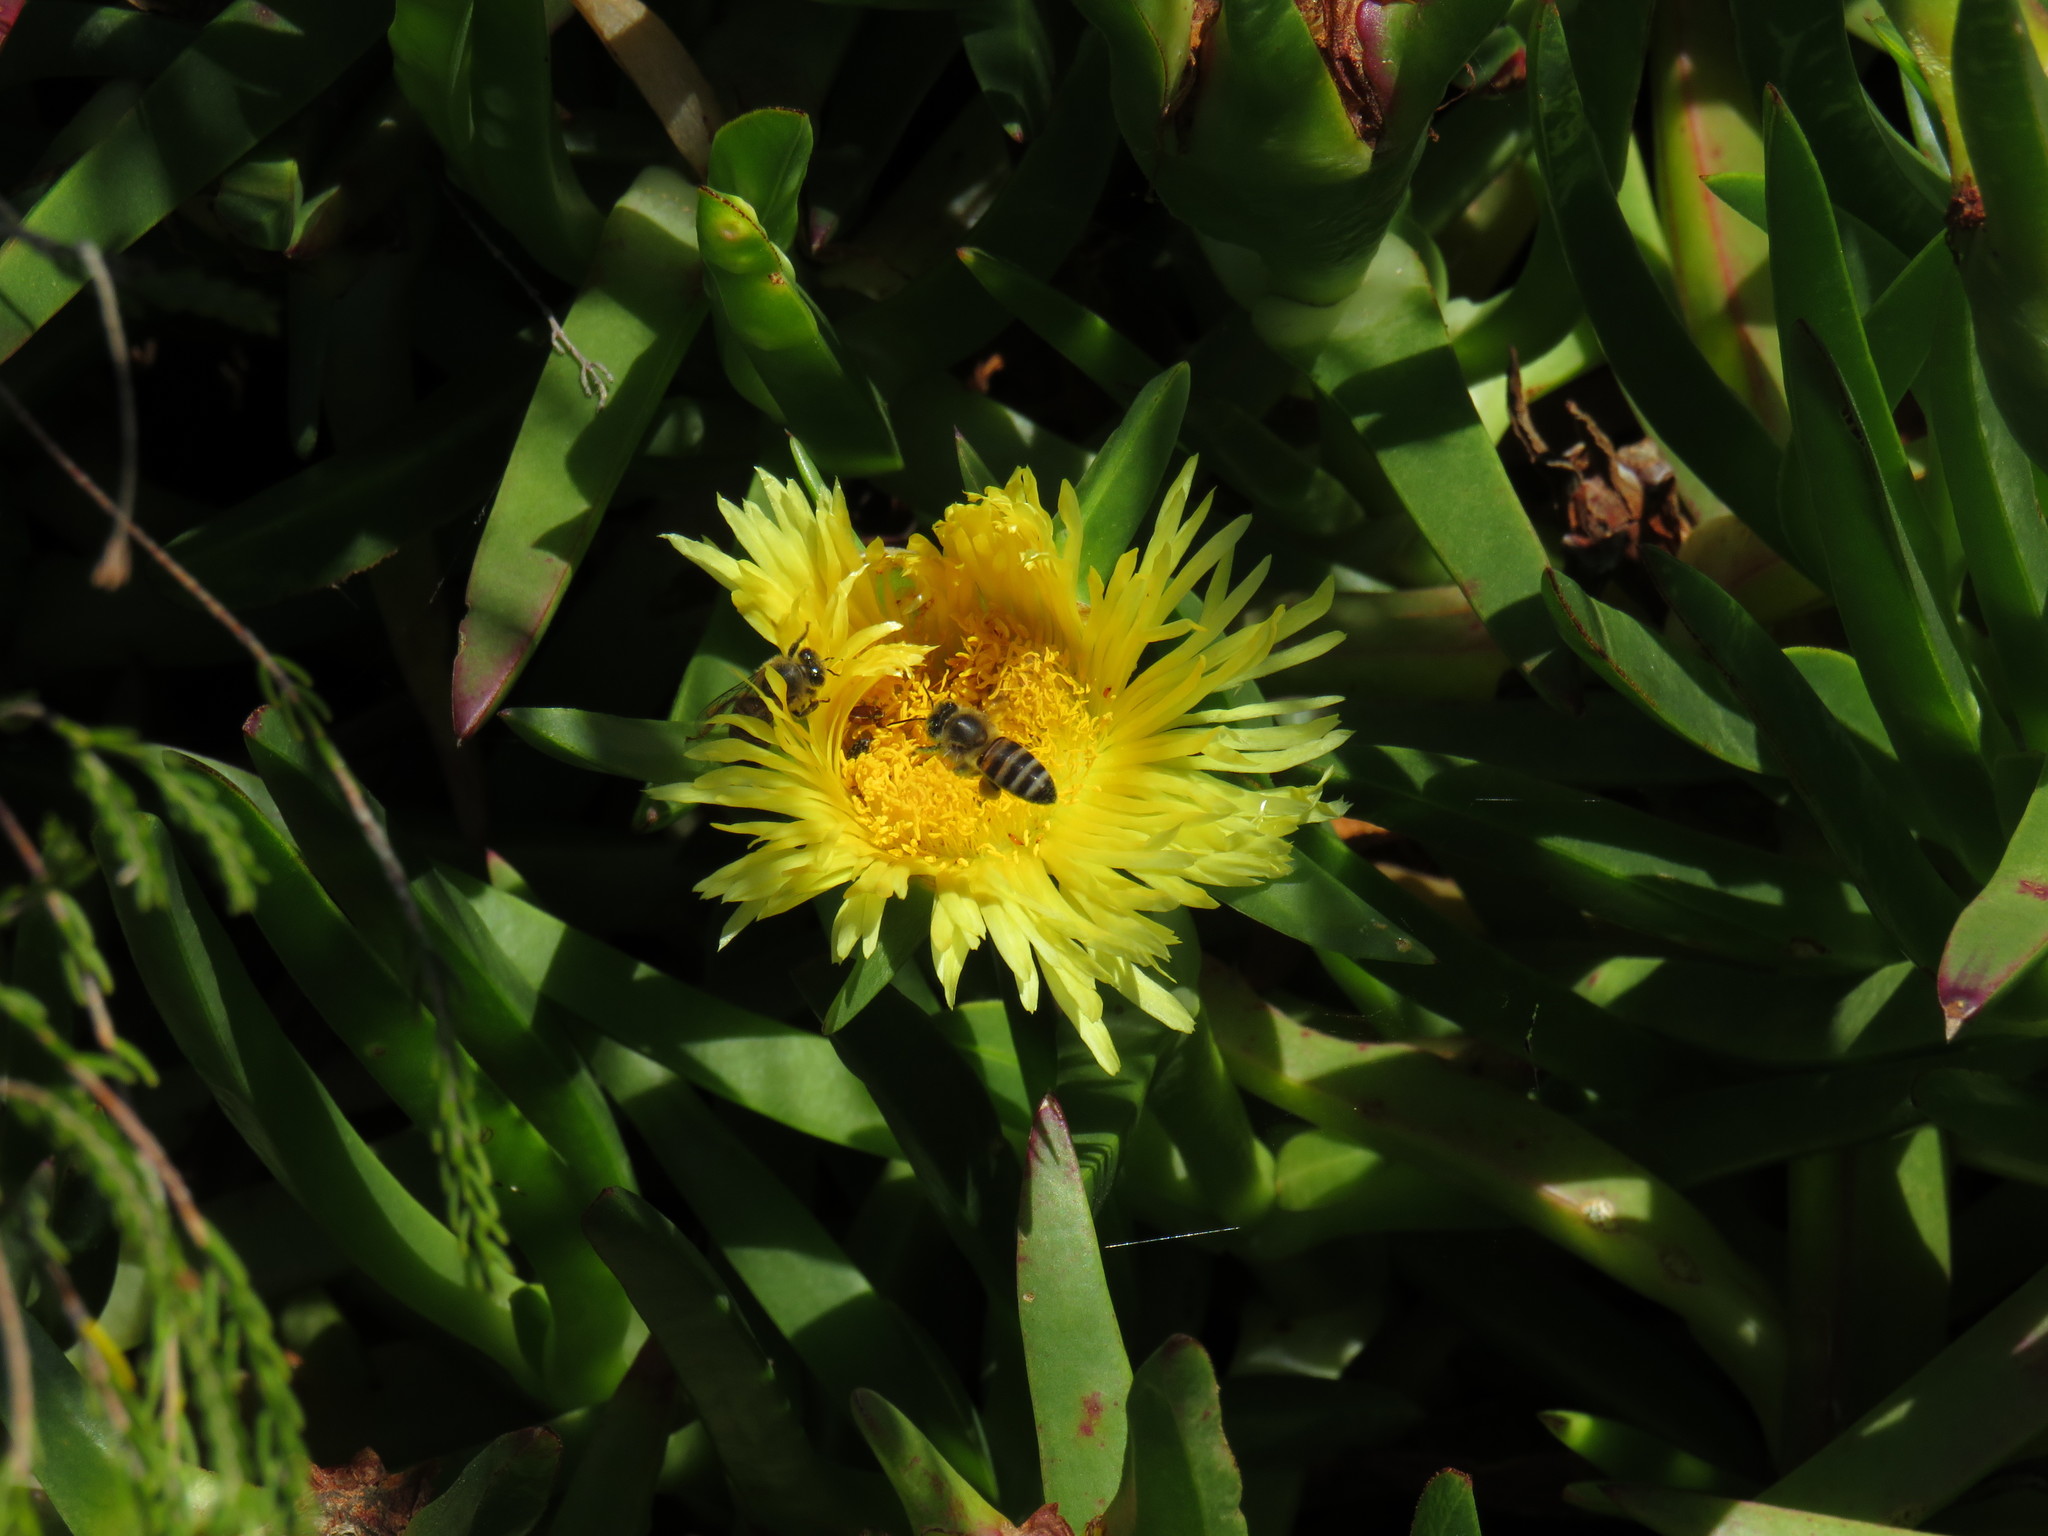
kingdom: Animalia
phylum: Arthropoda
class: Insecta
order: Hymenoptera
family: Apidae
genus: Apis
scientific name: Apis mellifera
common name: Honey bee
